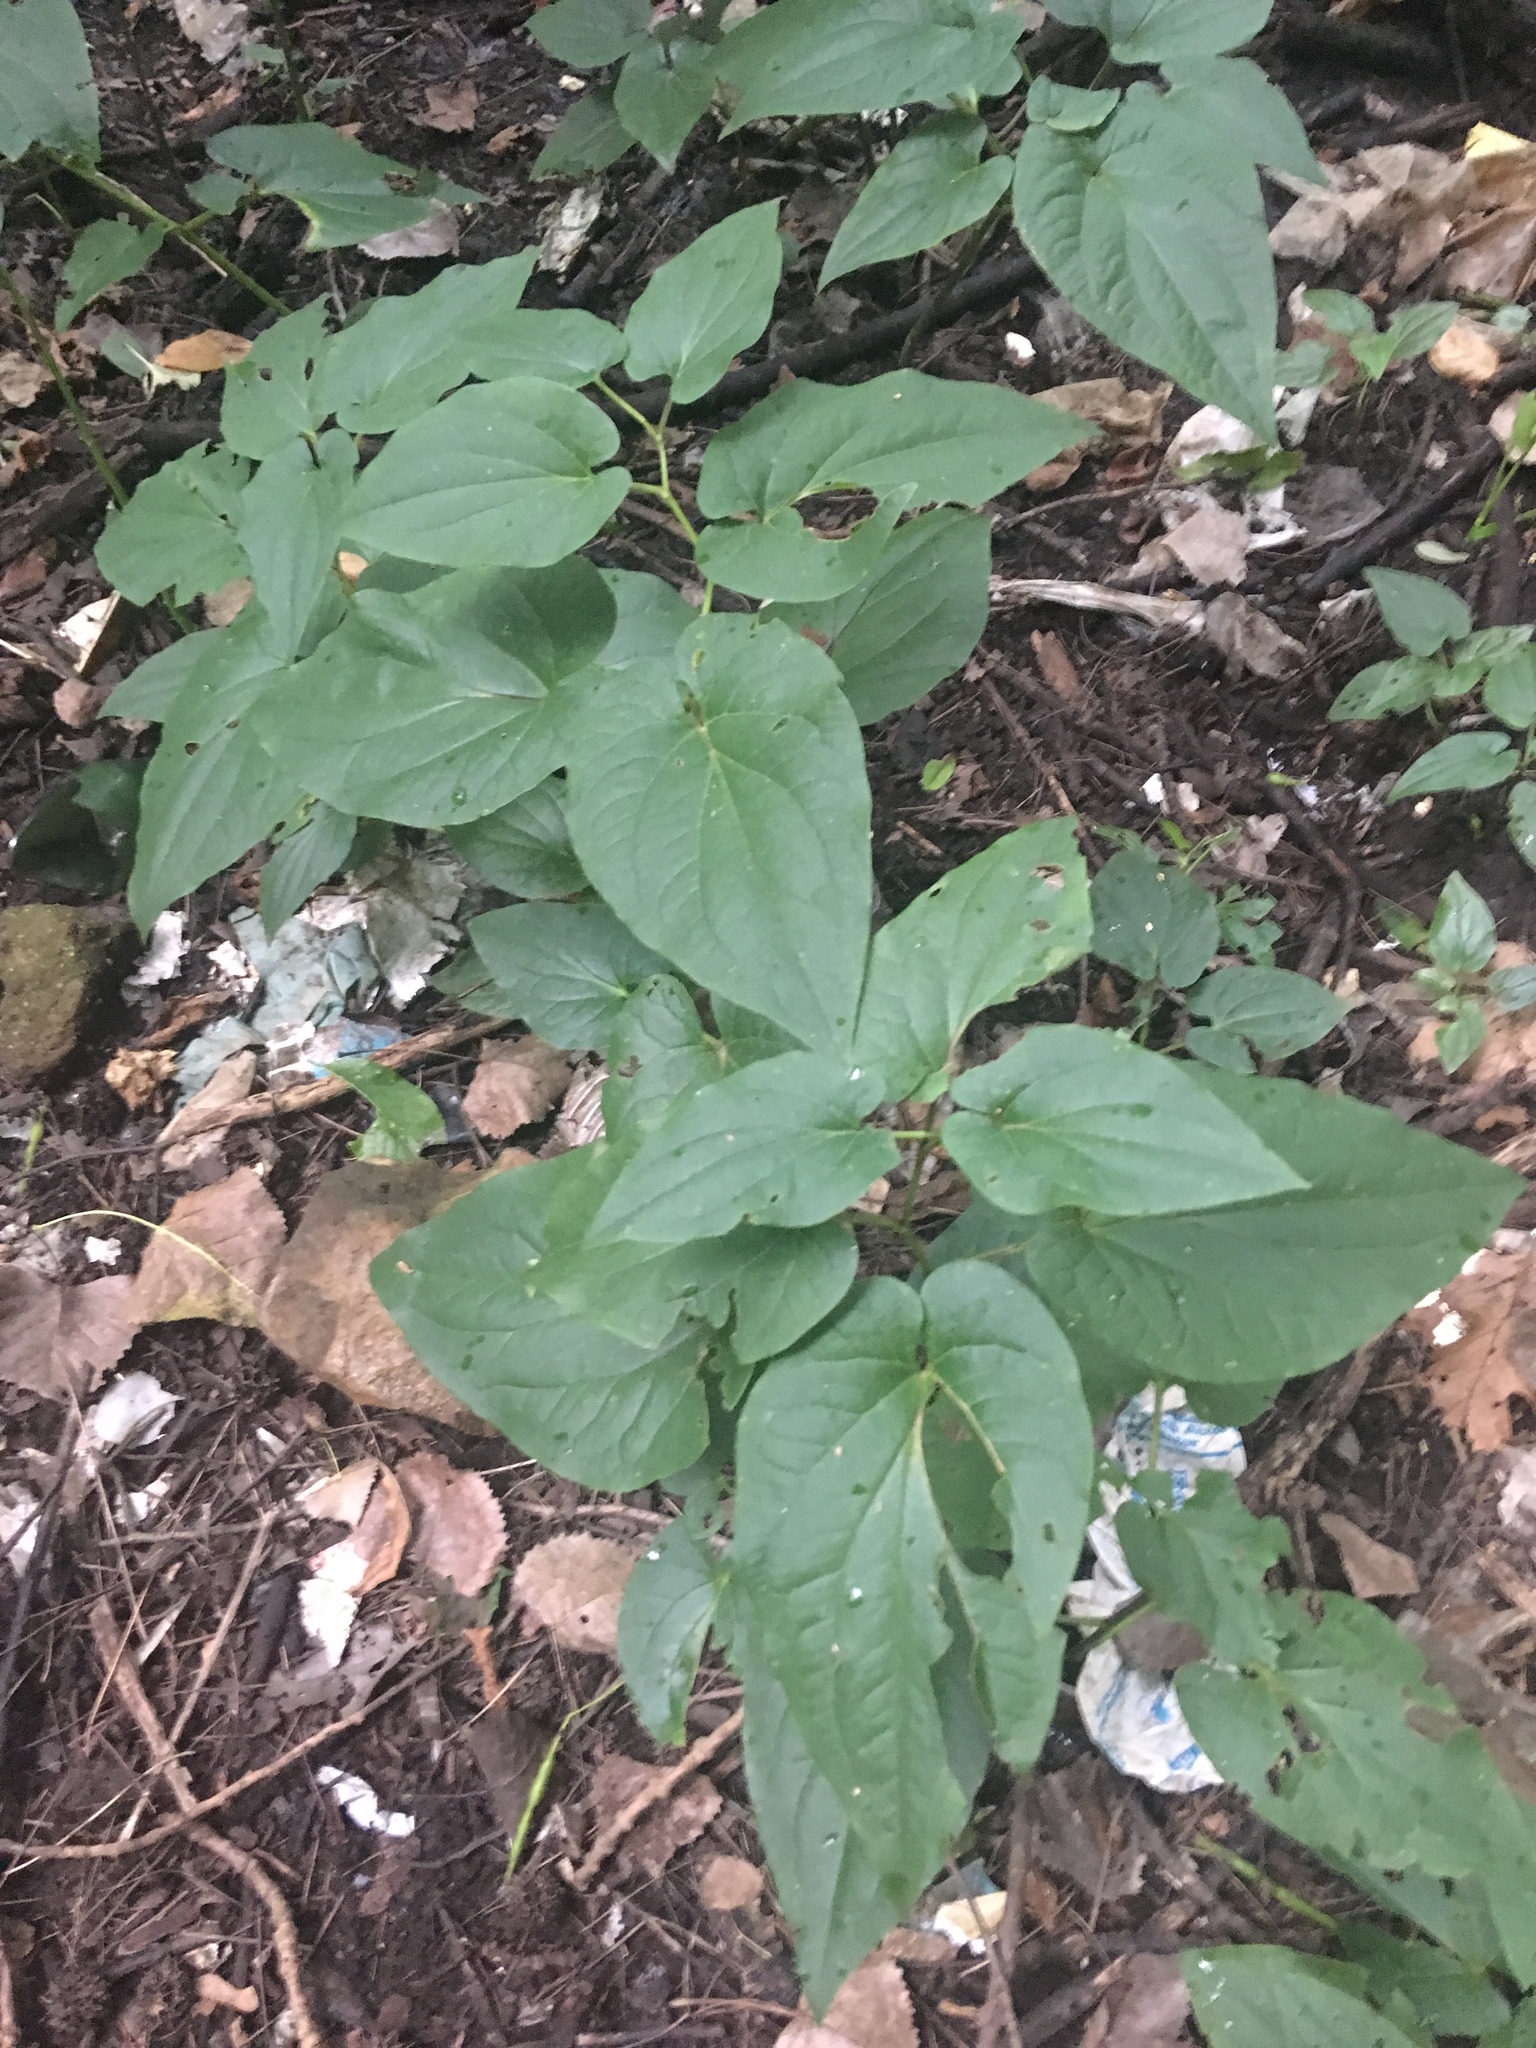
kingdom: Plantae
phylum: Tracheophyta
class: Magnoliopsida
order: Piperales
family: Saururaceae
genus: Saururus
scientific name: Saururus cernuus
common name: Lizard's-tail
